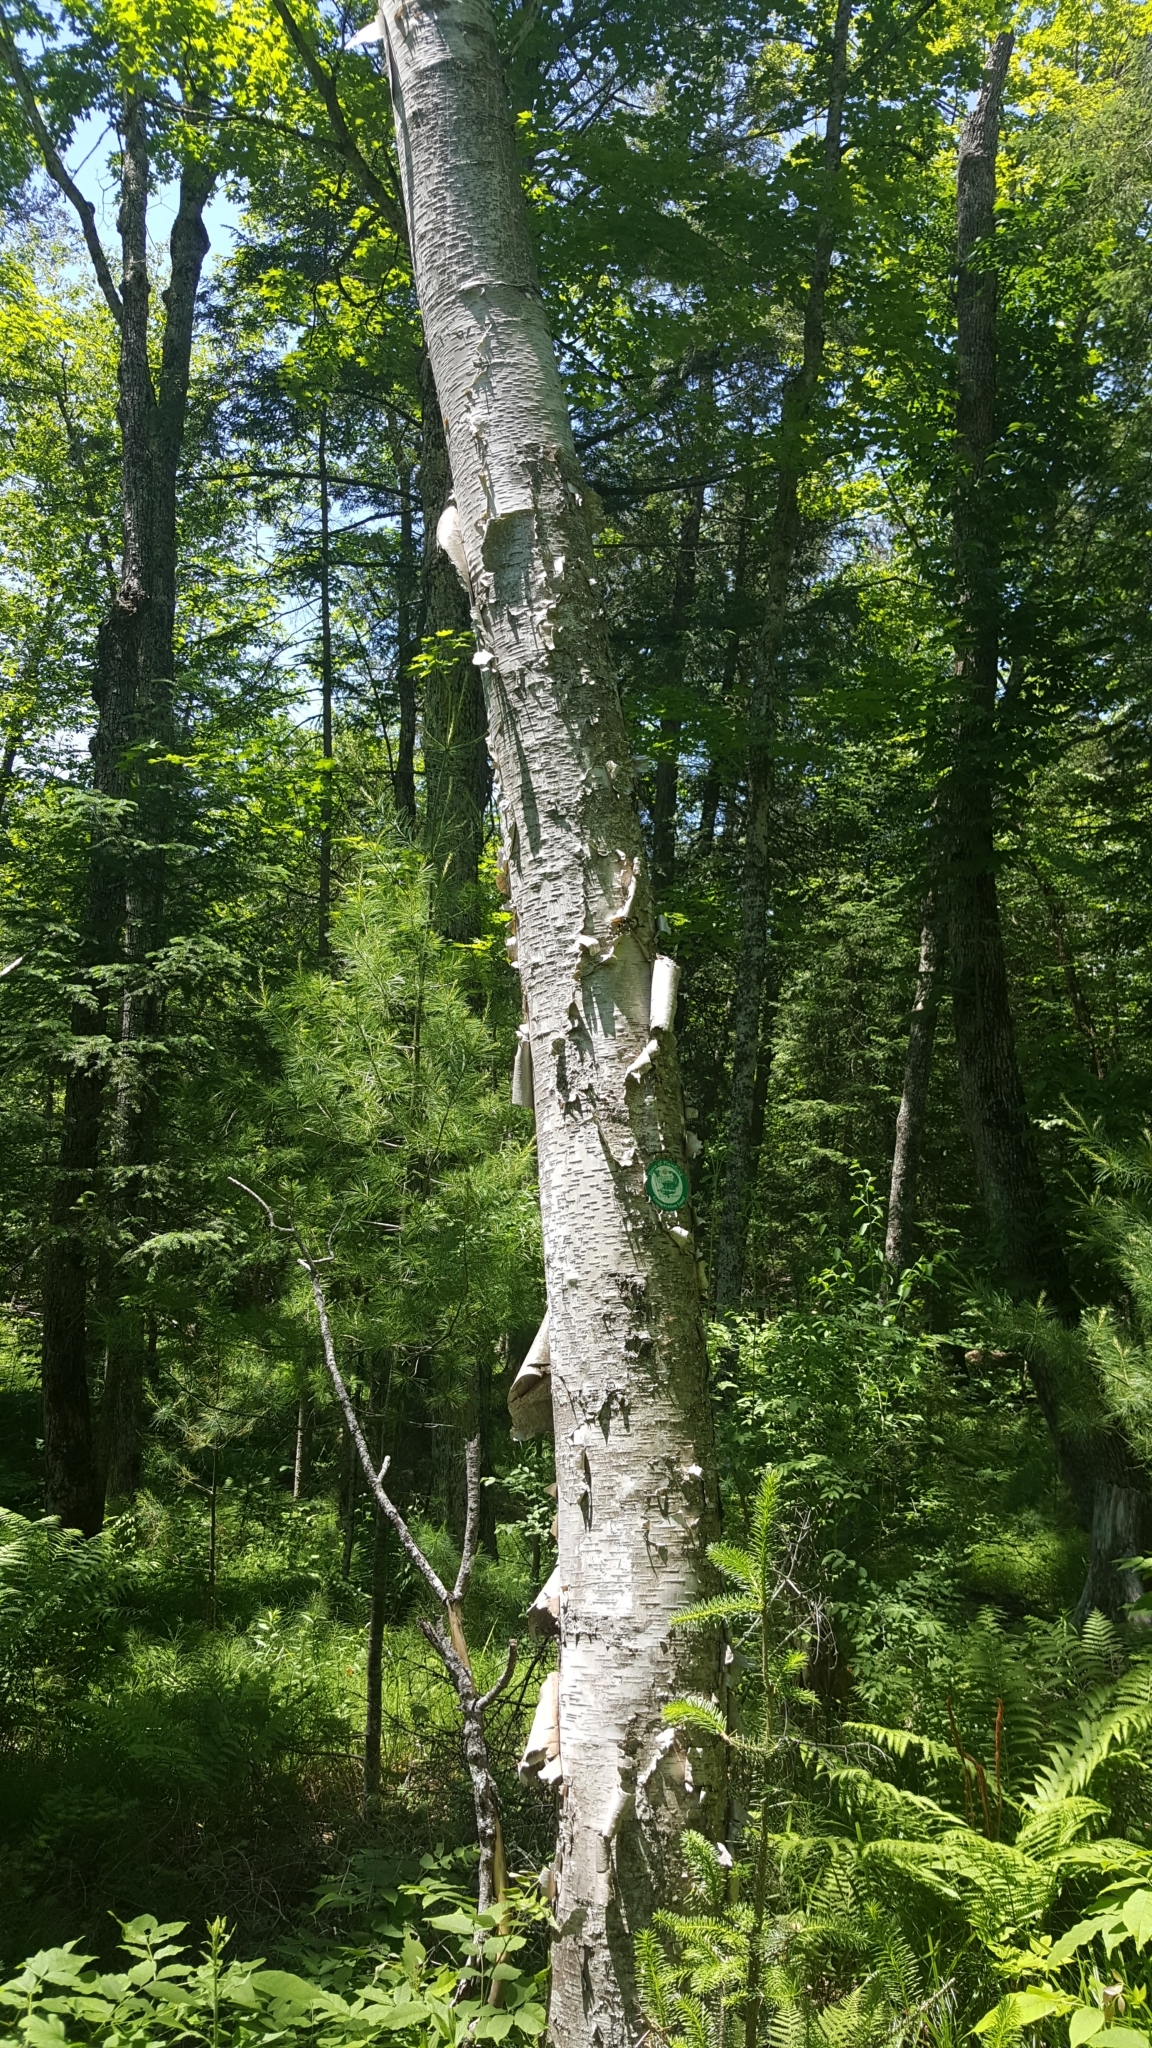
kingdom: Plantae
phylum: Tracheophyta
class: Magnoliopsida
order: Fagales
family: Betulaceae
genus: Betula
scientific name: Betula papyrifera
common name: Paper birch
